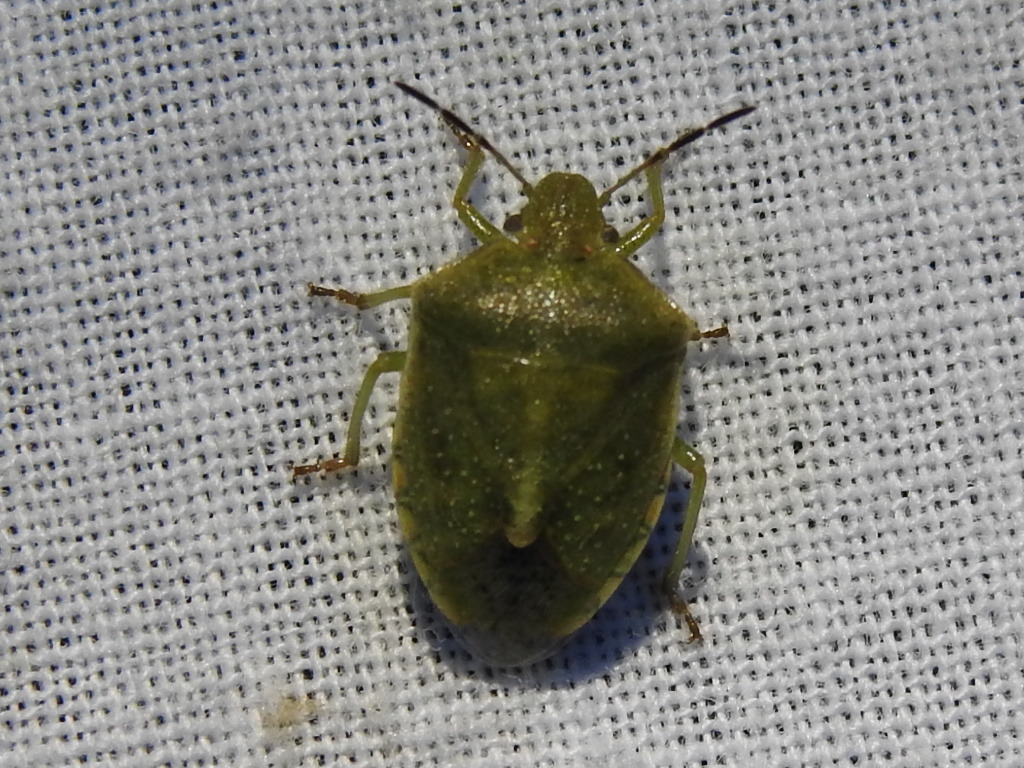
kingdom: Animalia
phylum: Arthropoda
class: Insecta
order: Hemiptera
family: Pentatomidae
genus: Thyanta
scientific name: Thyanta accerra
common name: Stink bug
